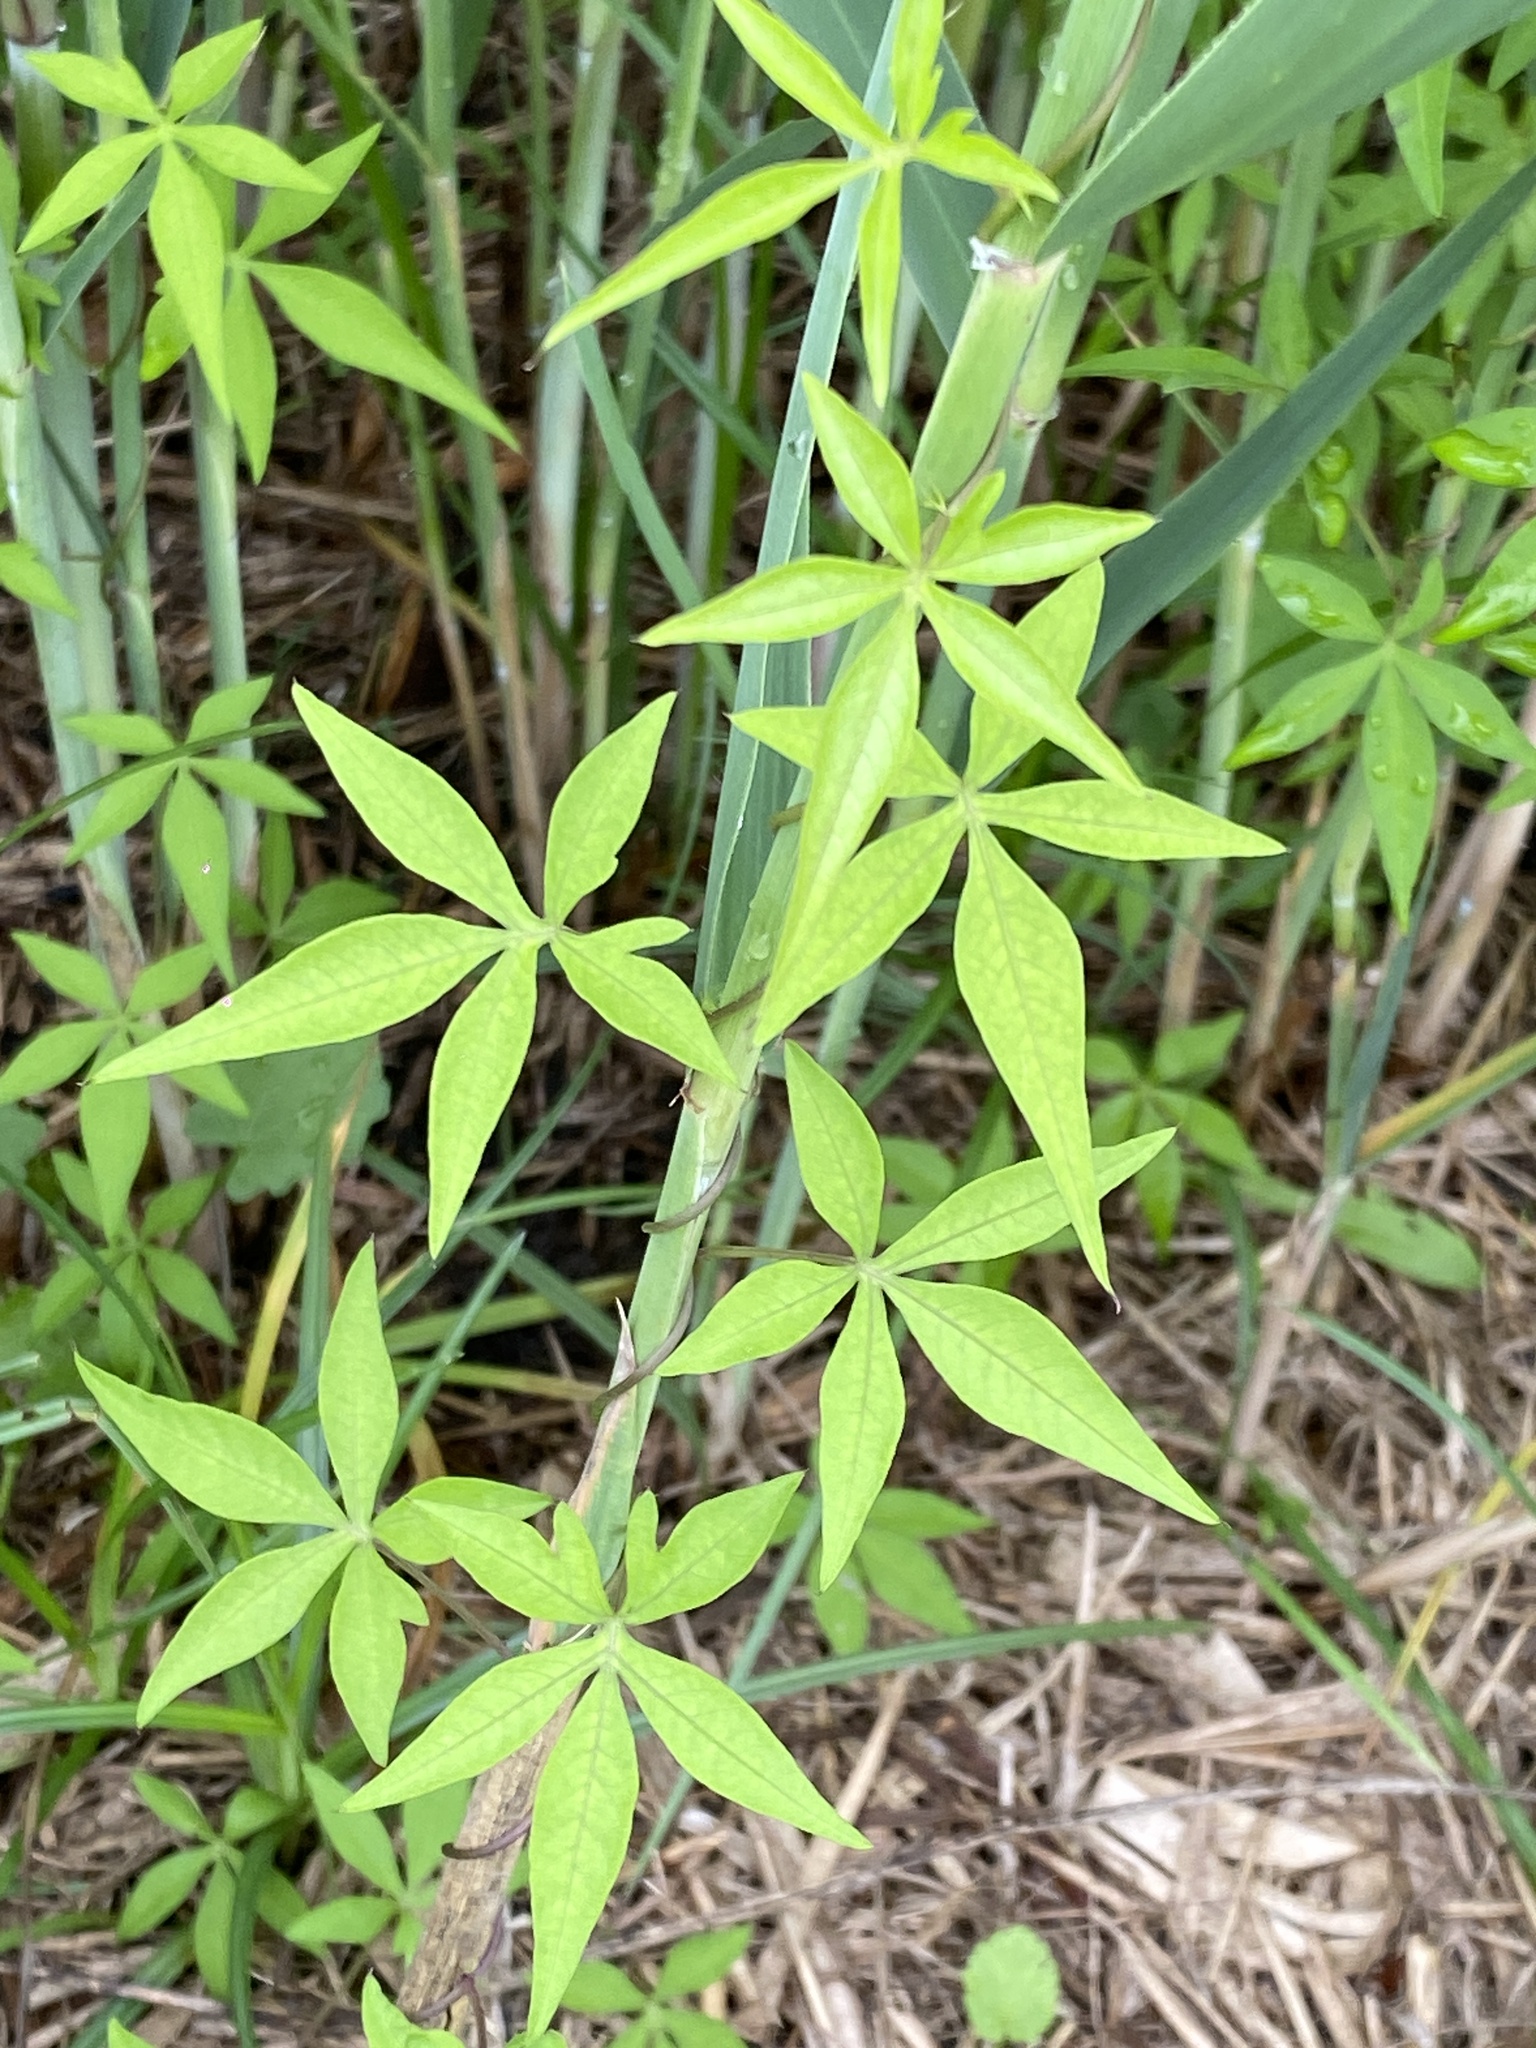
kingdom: Plantae
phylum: Tracheophyta
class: Magnoliopsida
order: Solanales
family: Convolvulaceae
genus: Ipomoea
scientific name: Ipomoea cairica
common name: Mile a minute vine
